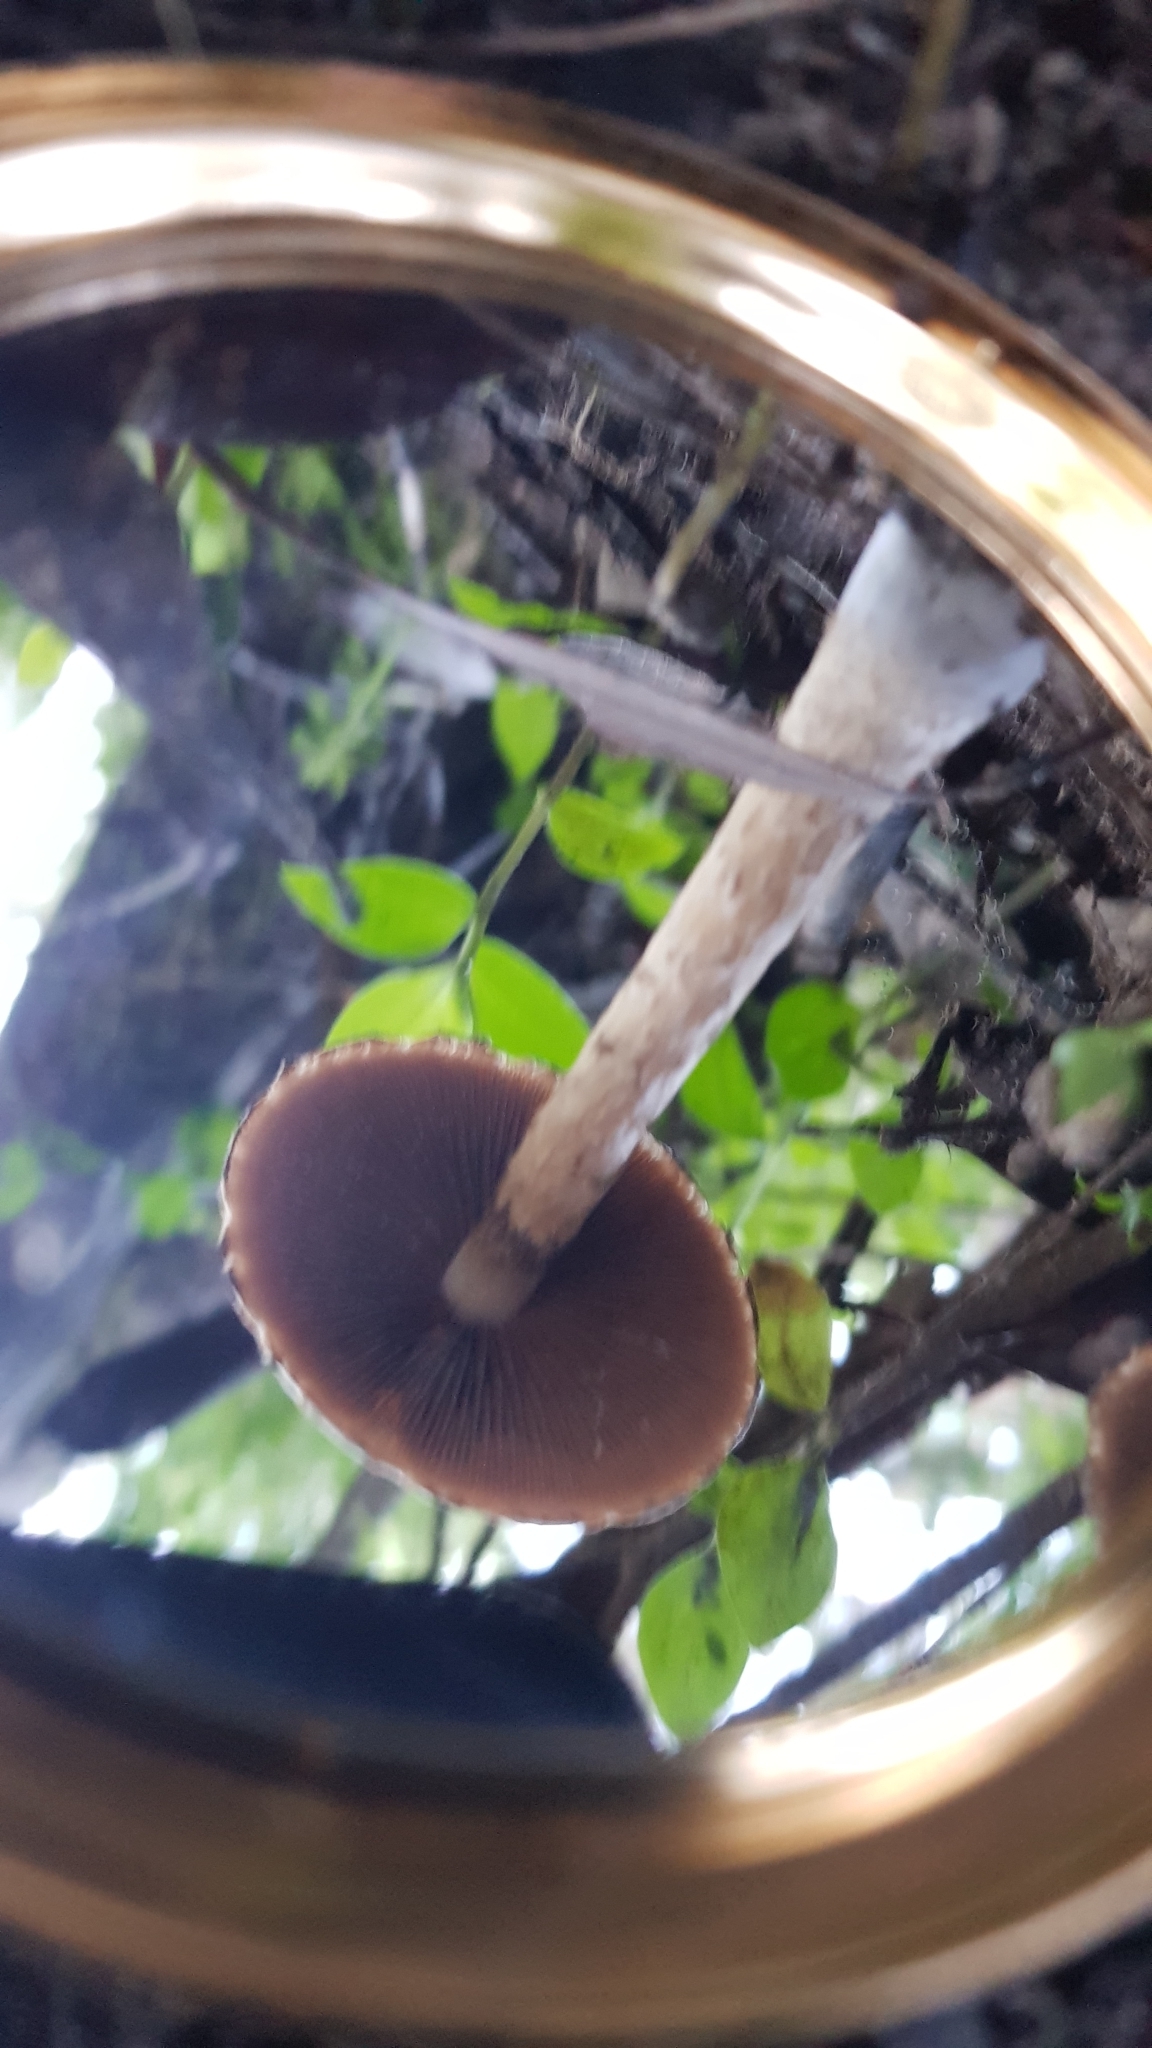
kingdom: Fungi
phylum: Basidiomycota
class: Agaricomycetes
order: Agaricales
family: Psathyrellaceae
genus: Psathyrella
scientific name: Psathyrella asperospora
